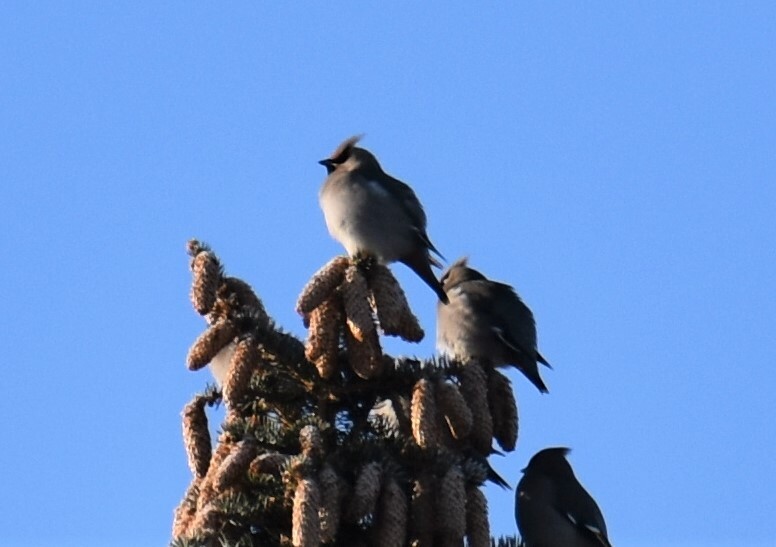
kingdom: Animalia
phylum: Chordata
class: Aves
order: Passeriformes
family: Bombycillidae
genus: Bombycilla
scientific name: Bombycilla garrulus
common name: Bohemian waxwing
